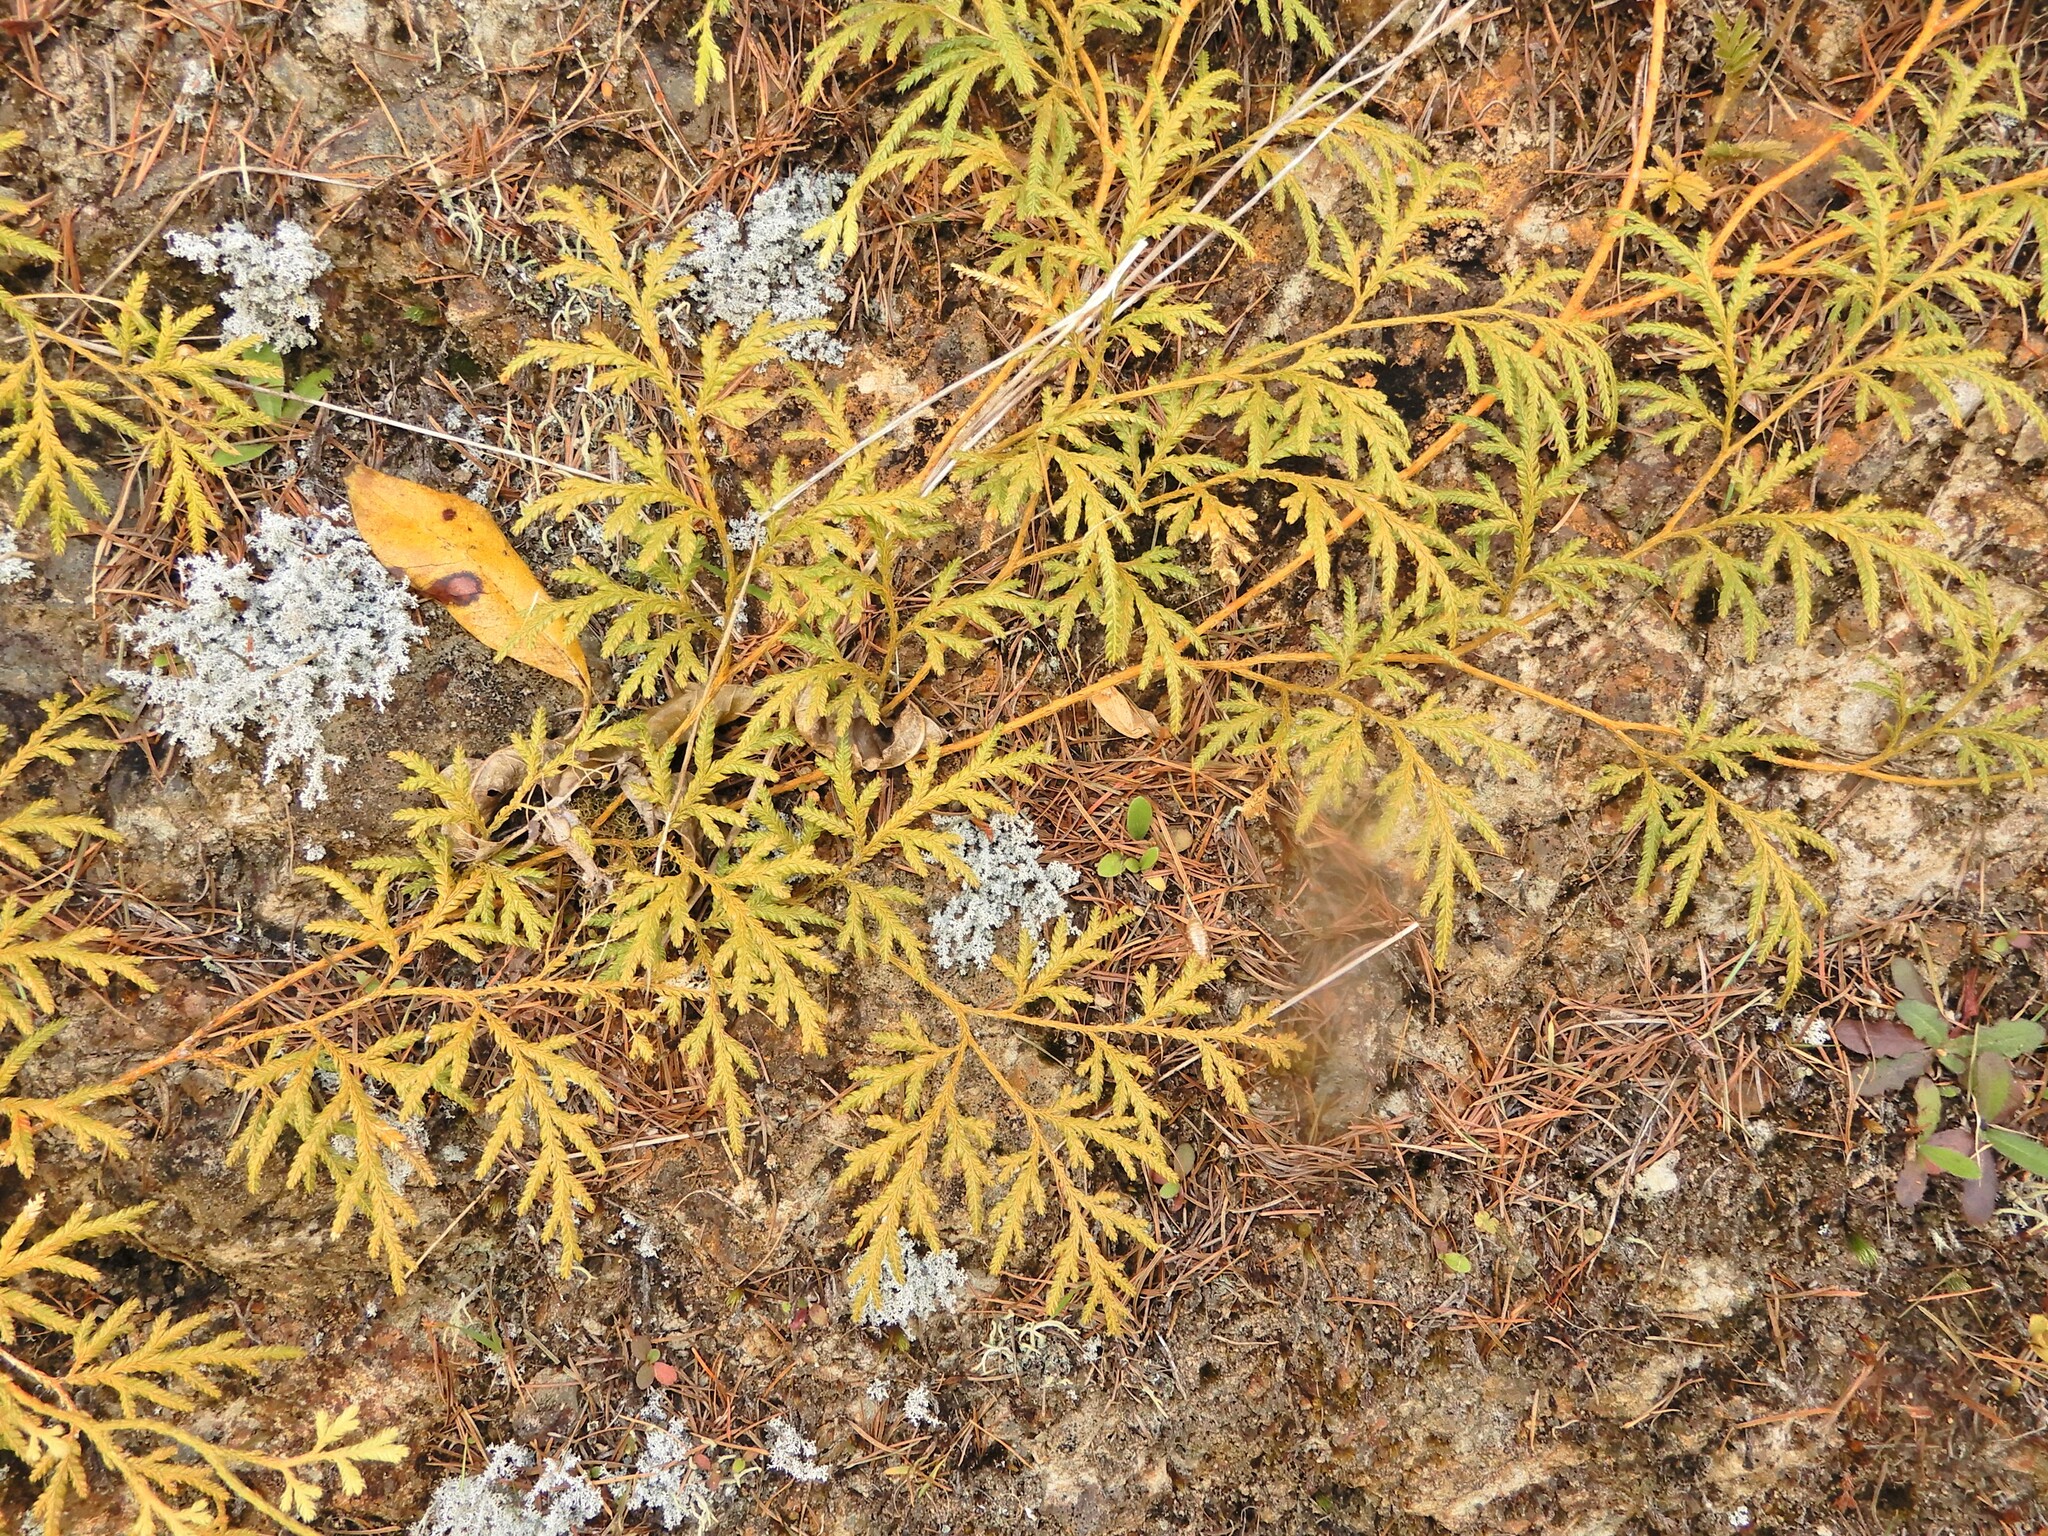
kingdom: Plantae
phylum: Tracheophyta
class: Lycopodiopsida
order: Lycopodiales
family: Lycopodiaceae
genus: Lycopodium
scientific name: Lycopodium volubile
